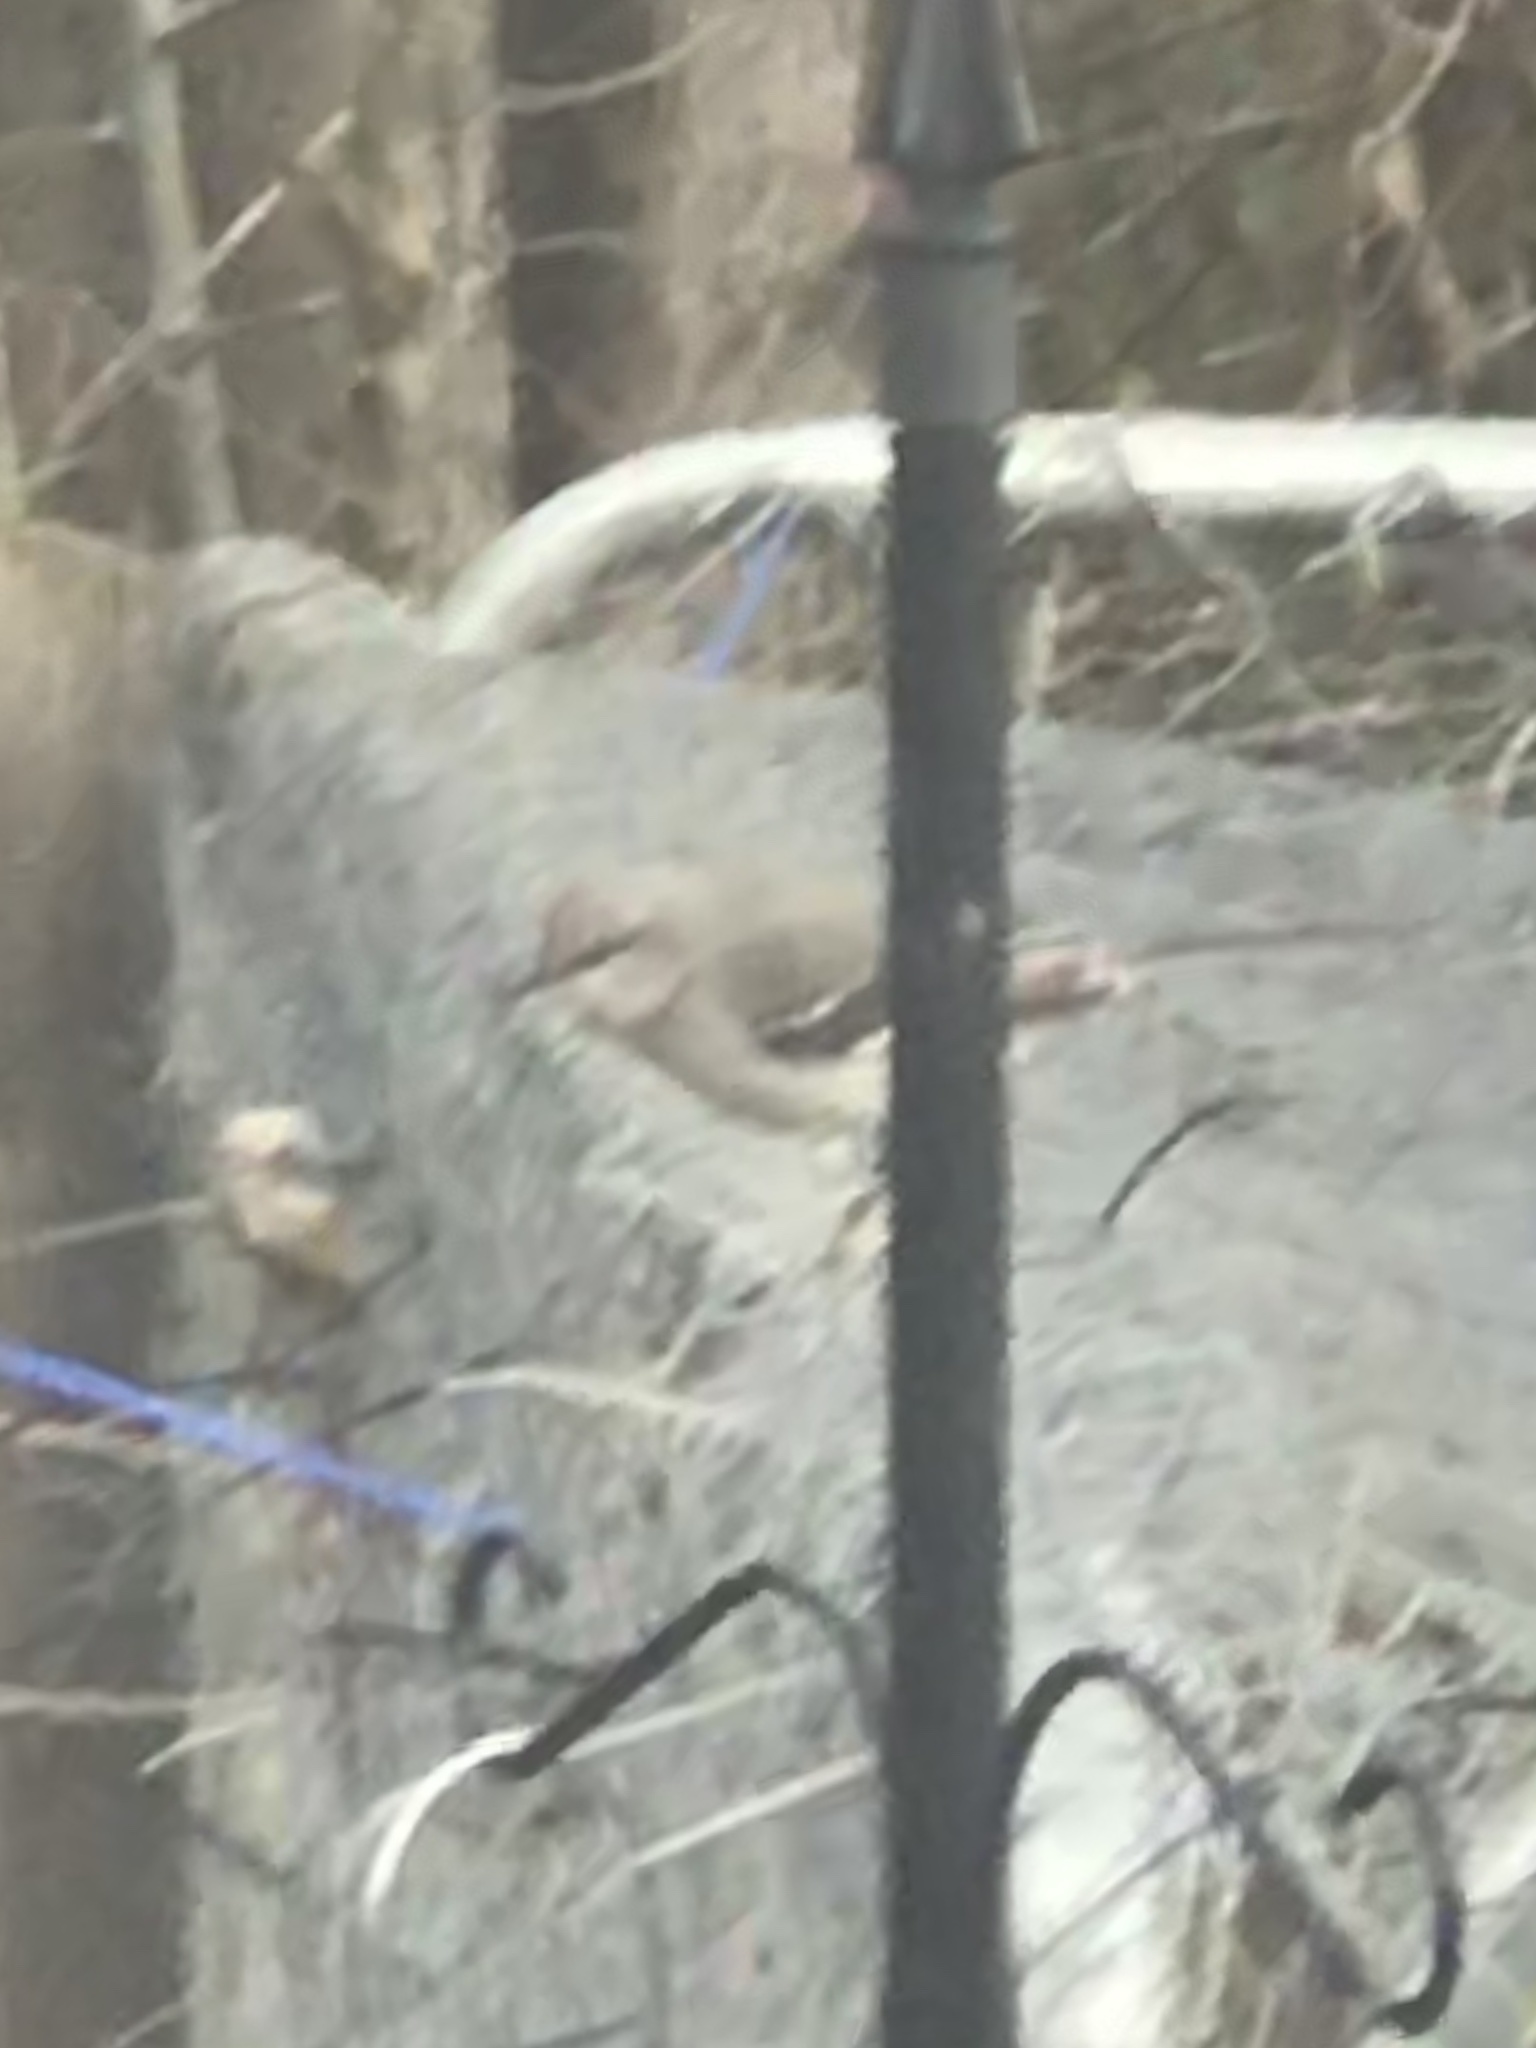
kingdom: Animalia
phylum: Chordata
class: Aves
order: Passeriformes
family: Mimidae
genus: Mimus
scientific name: Mimus polyglottos
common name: Northern mockingbird
